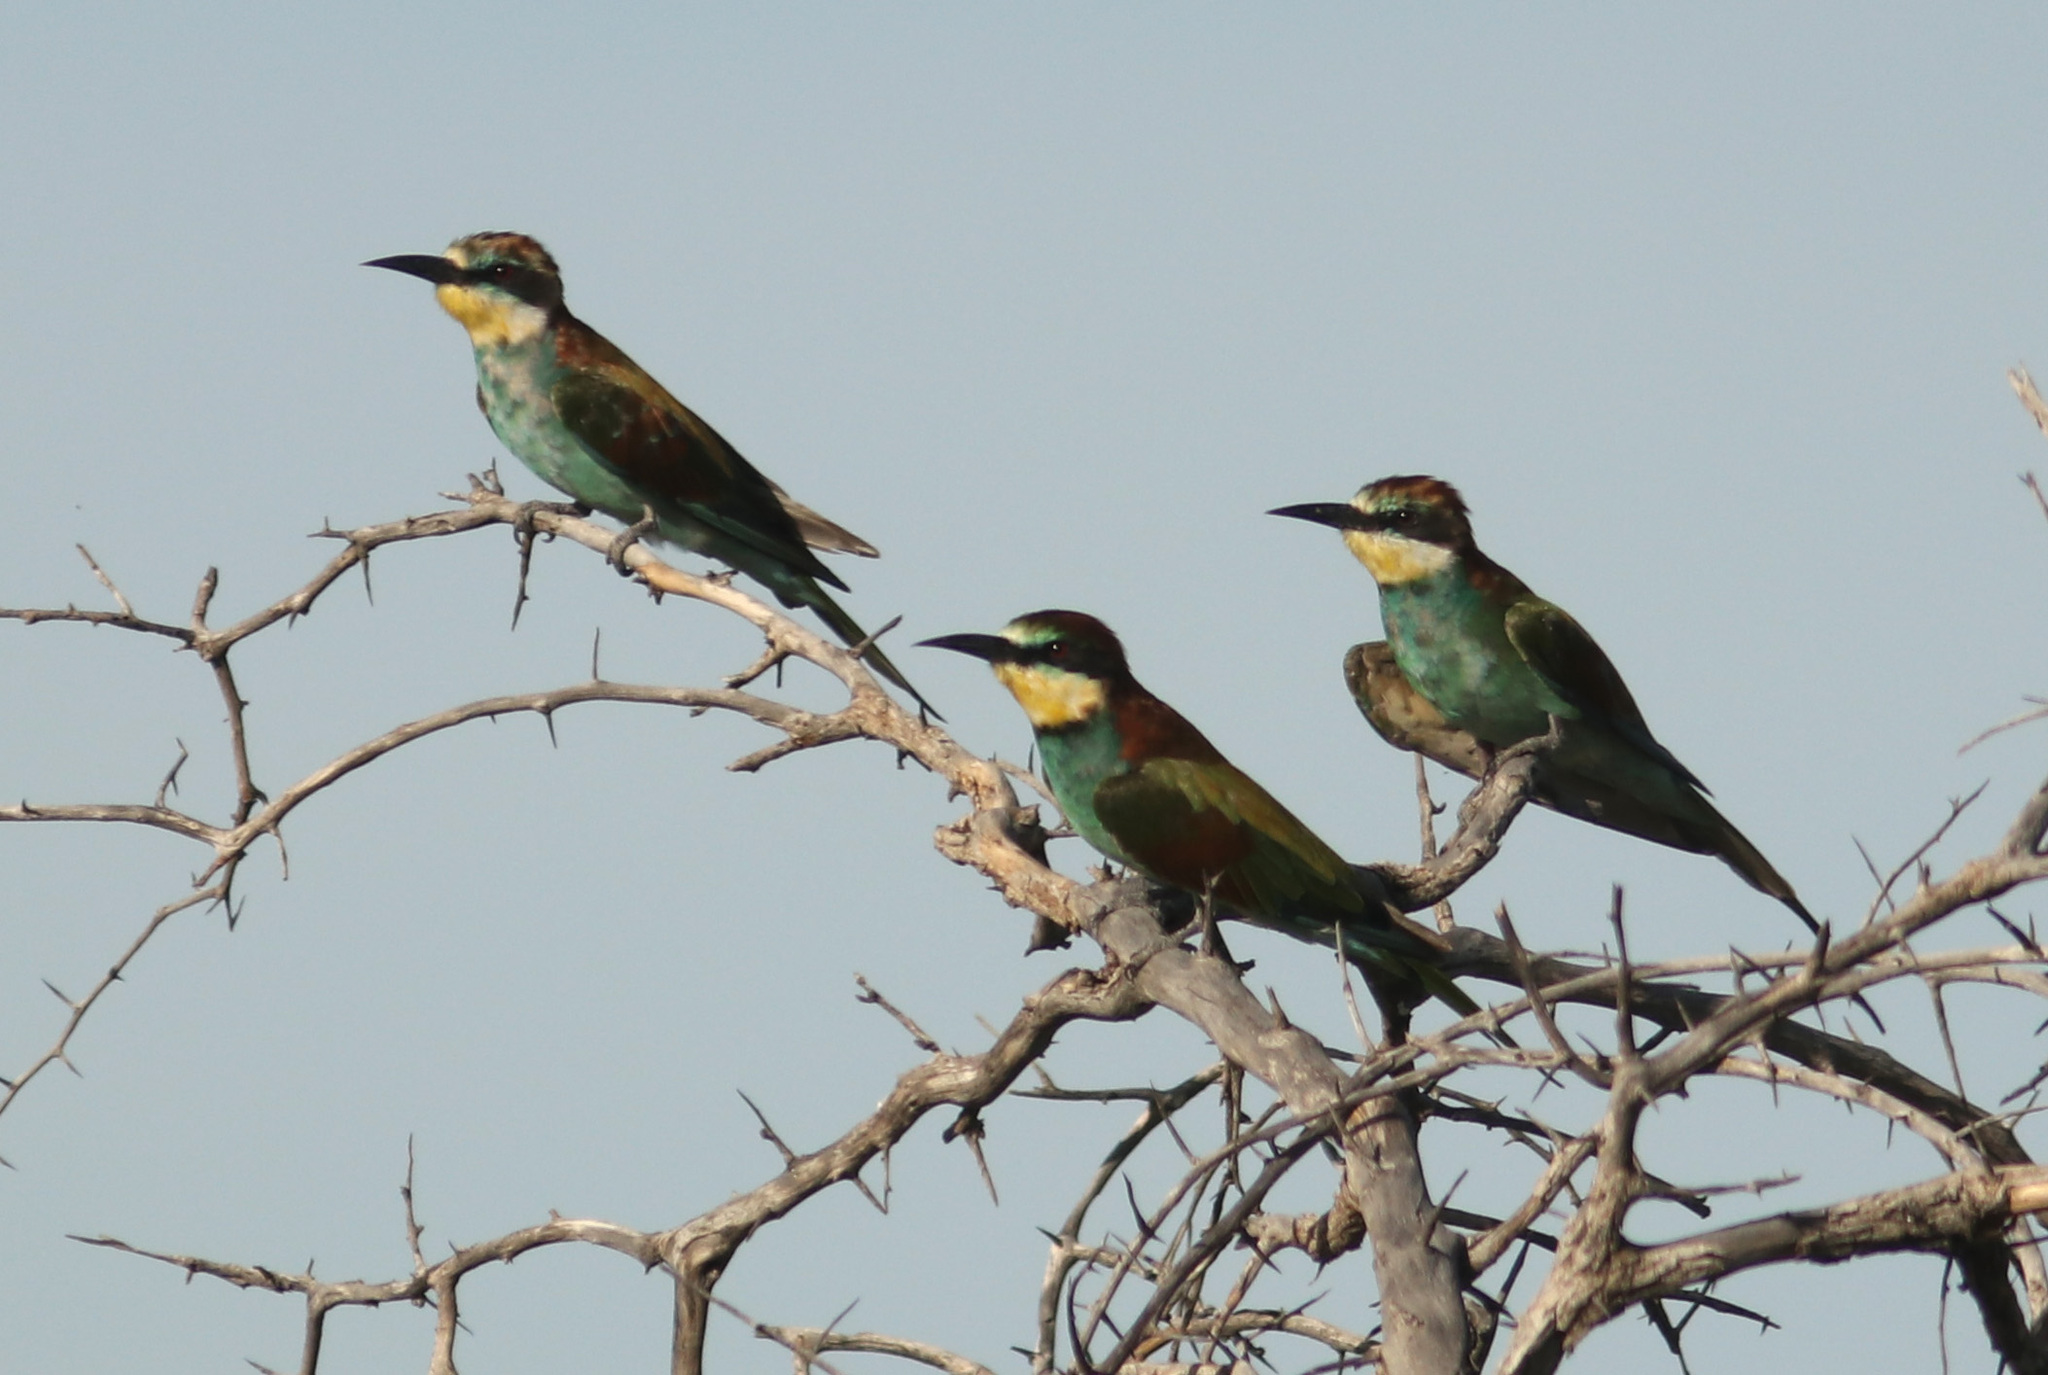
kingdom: Animalia
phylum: Chordata
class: Aves
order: Coraciiformes
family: Meropidae
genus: Merops
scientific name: Merops apiaster
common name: European bee-eater
